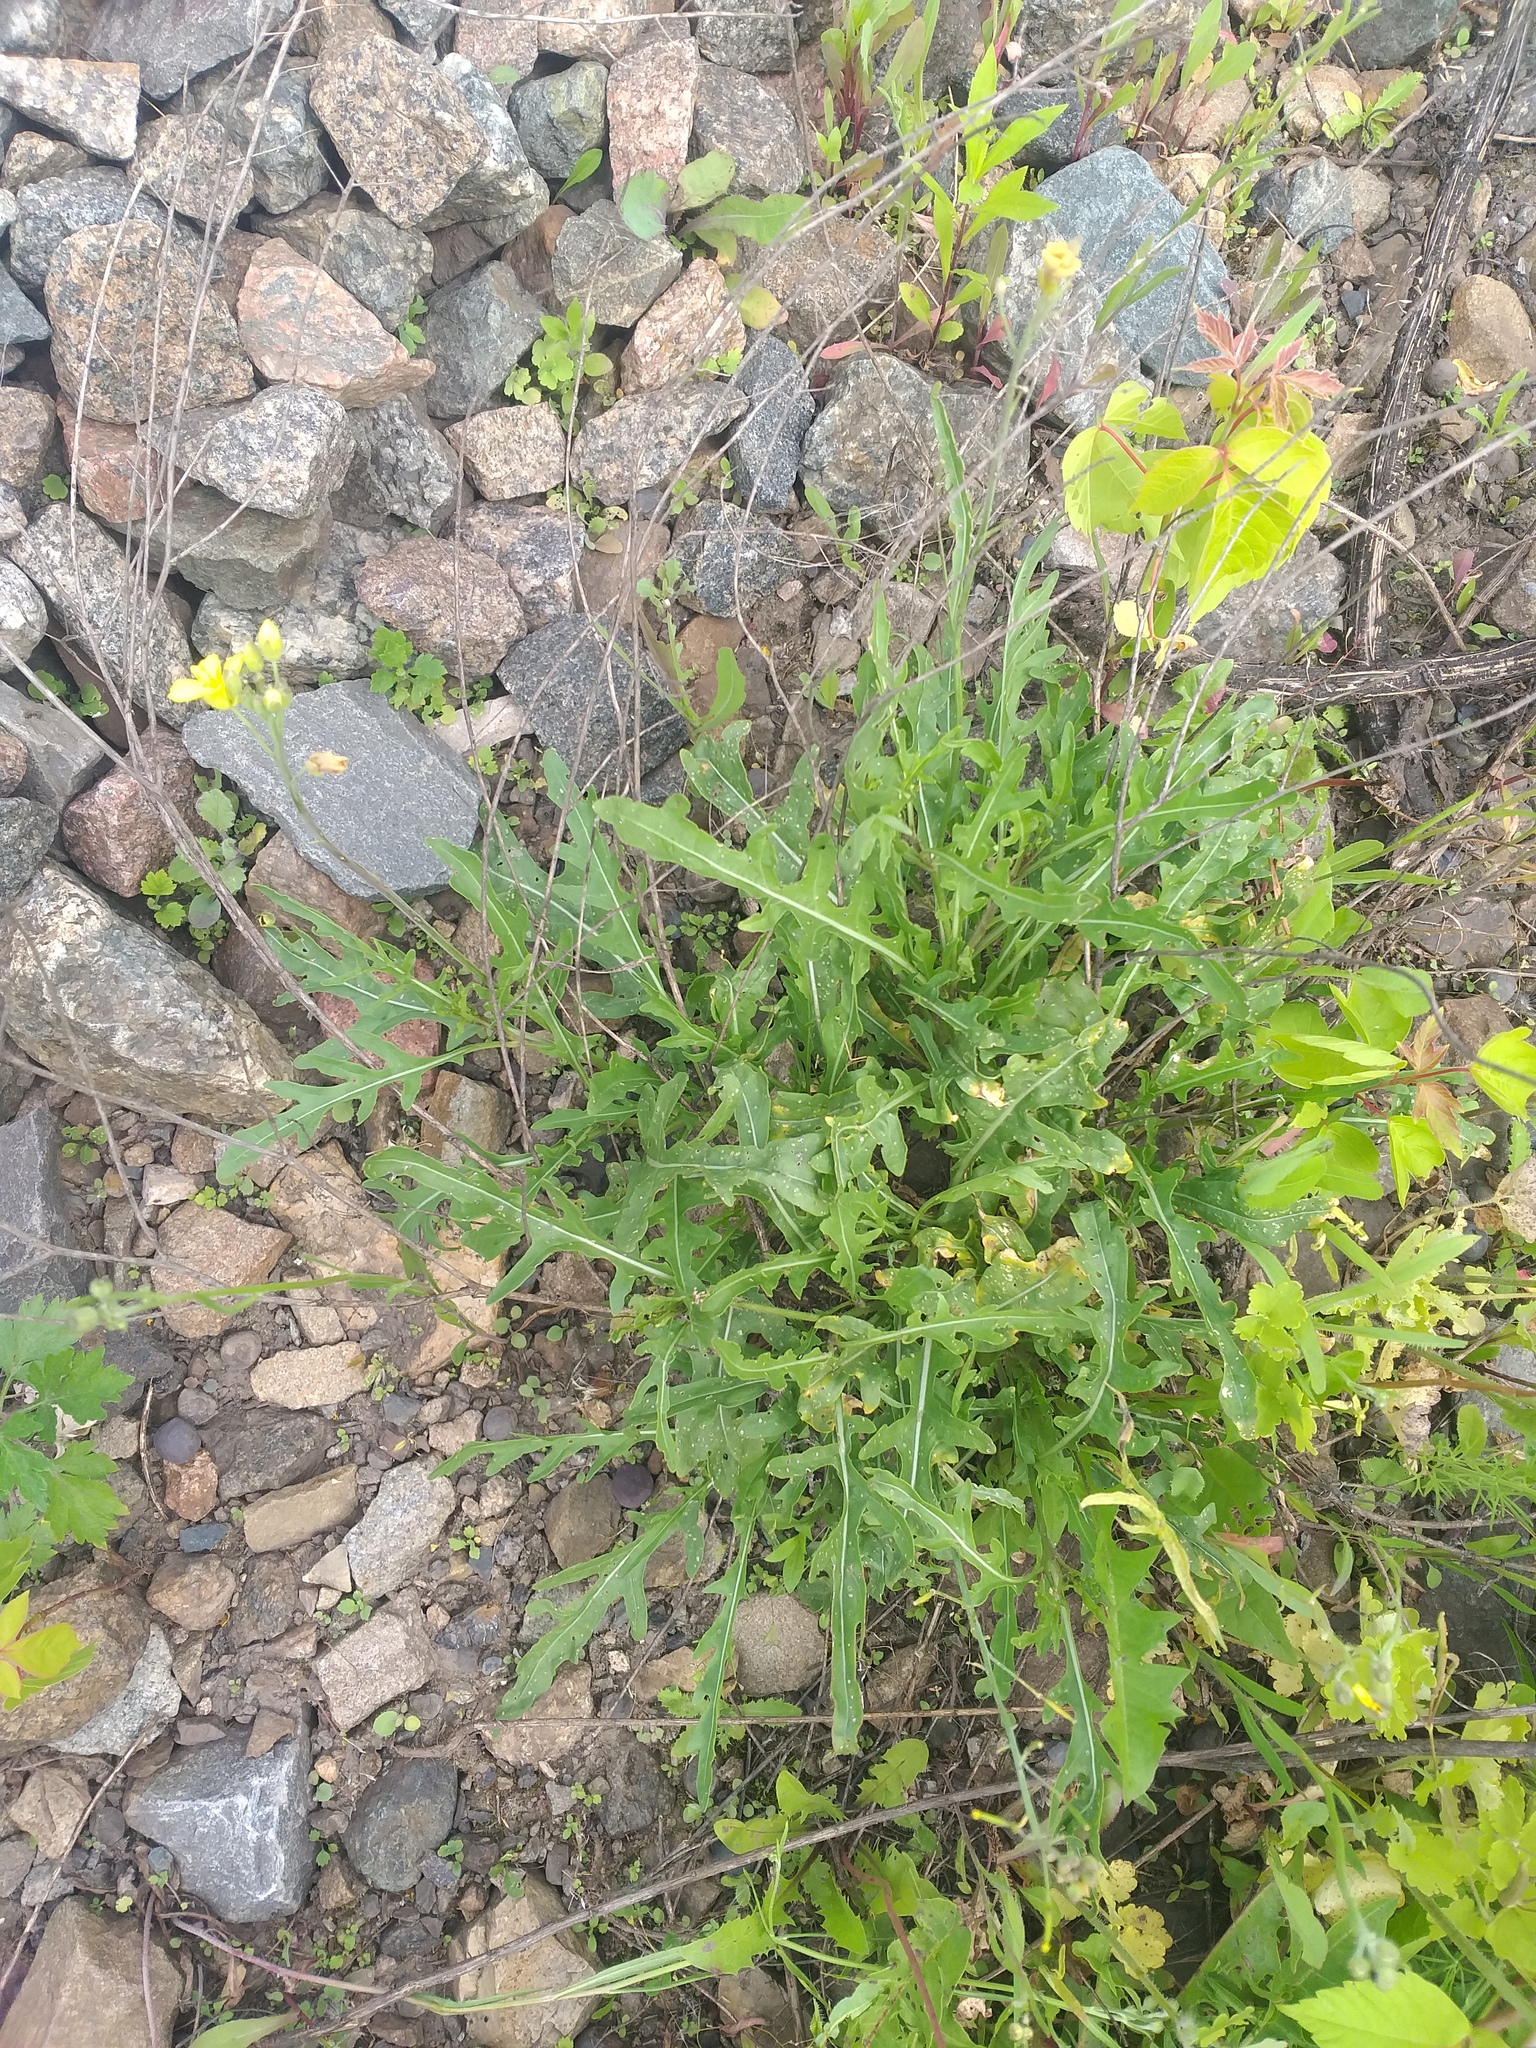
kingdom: Plantae
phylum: Tracheophyta
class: Magnoliopsida
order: Brassicales
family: Brassicaceae
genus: Diplotaxis
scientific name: Diplotaxis tenuifolia
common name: Perennial wall-rocket
